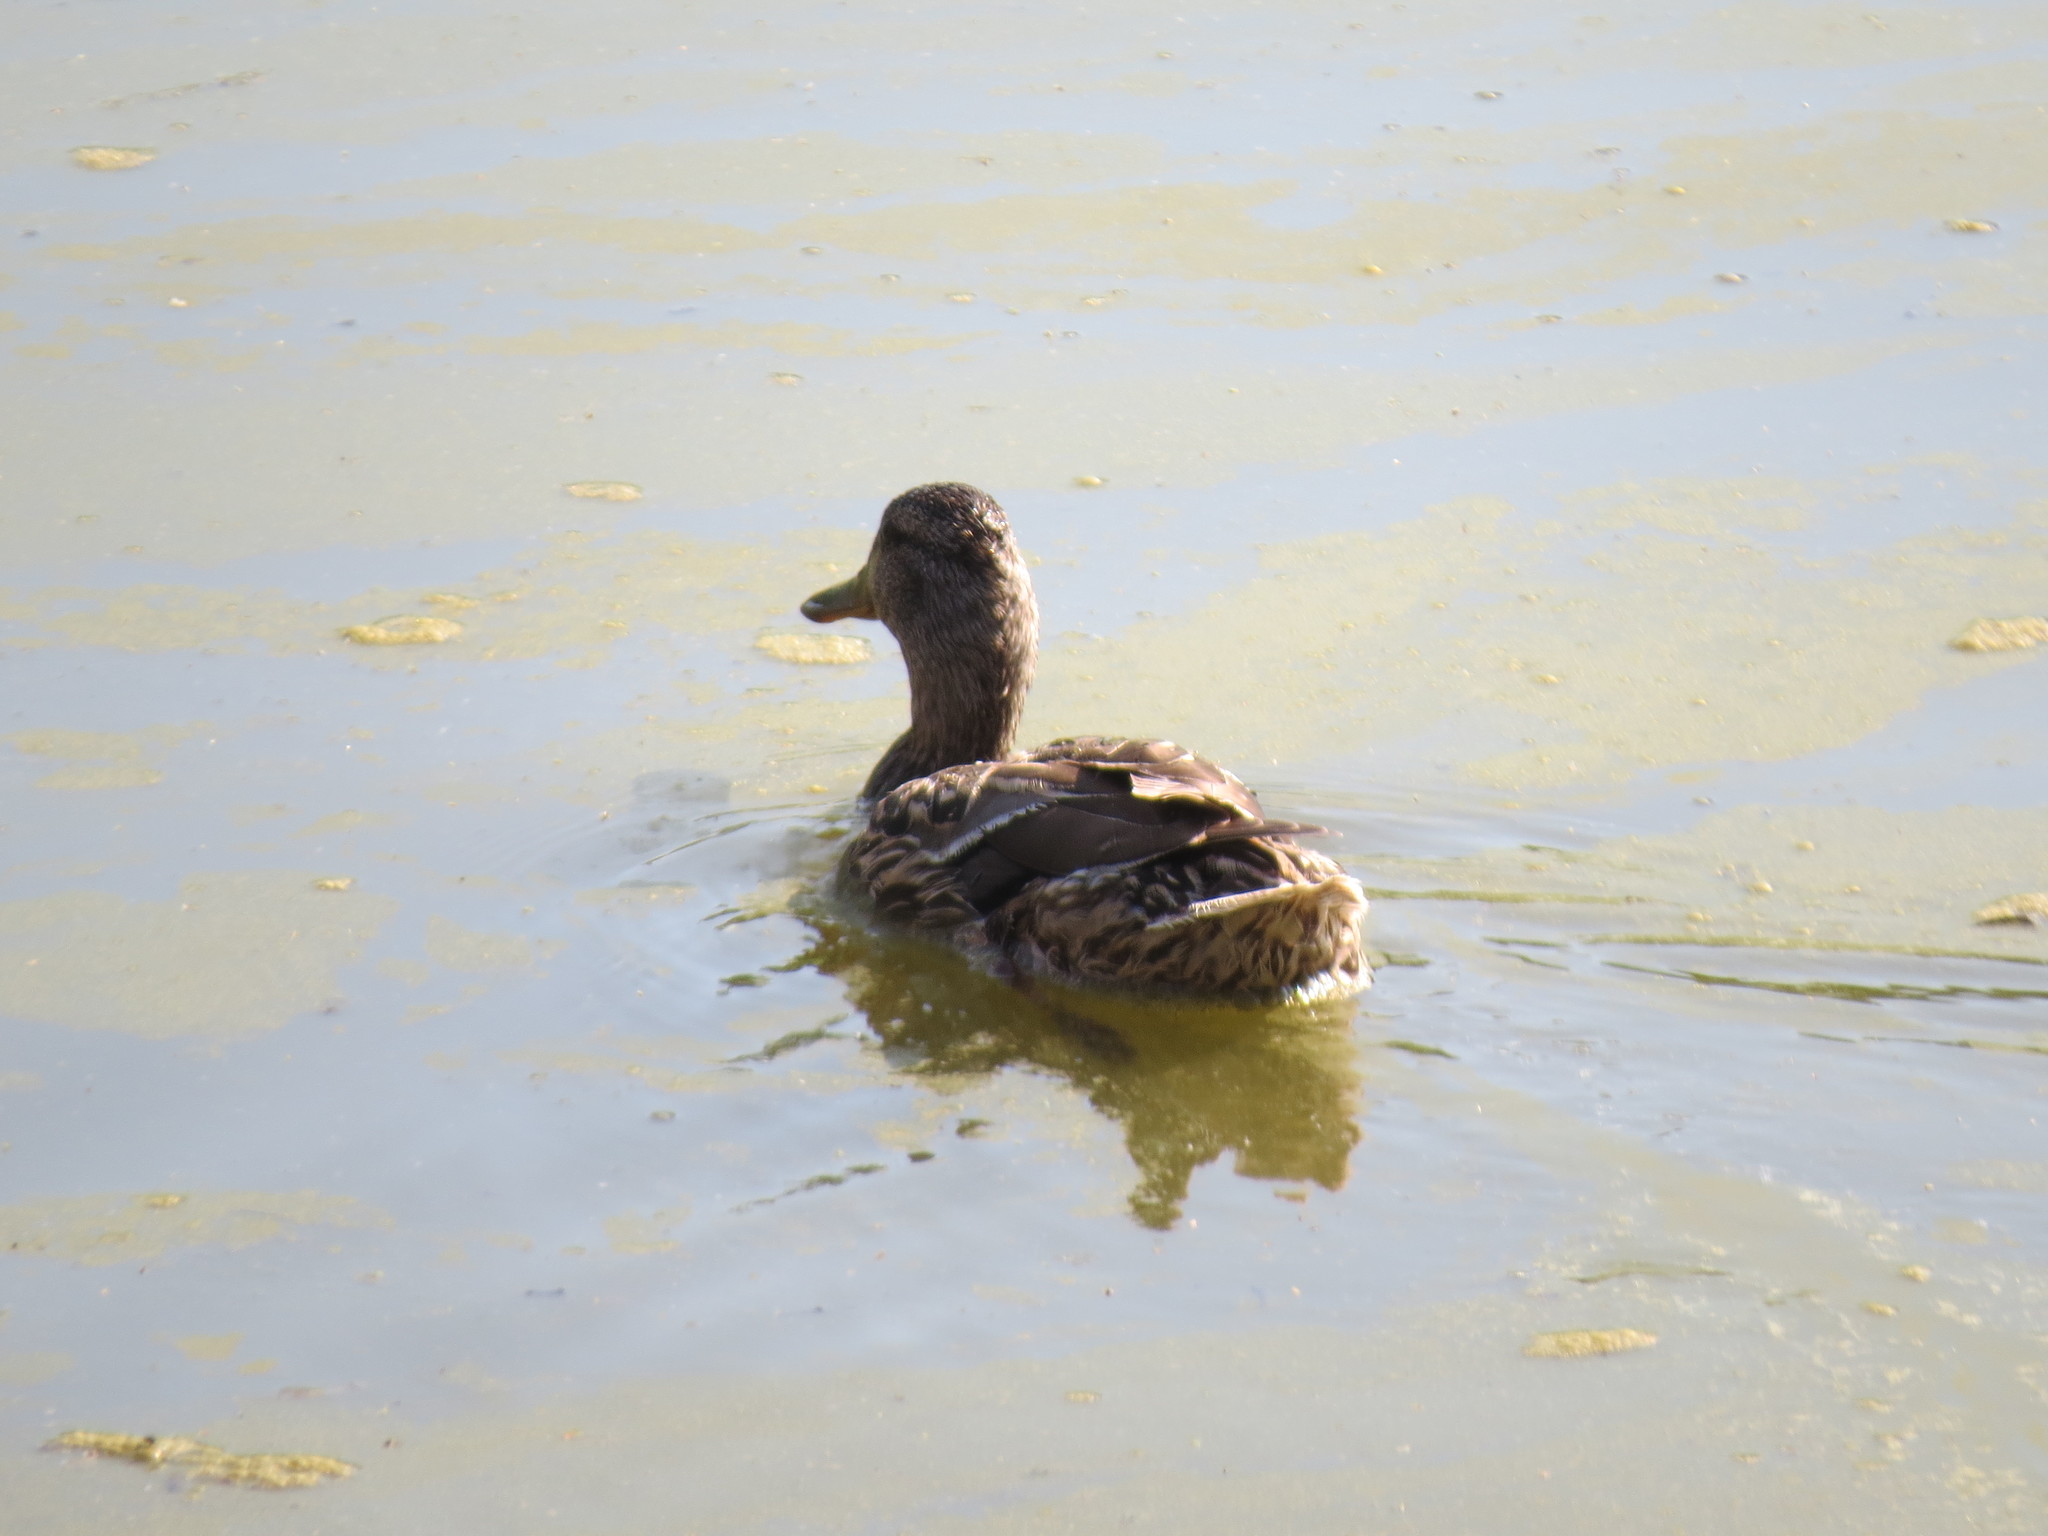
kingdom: Animalia
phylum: Chordata
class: Aves
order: Anseriformes
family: Anatidae
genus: Anas
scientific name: Anas platyrhynchos
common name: Mallard
